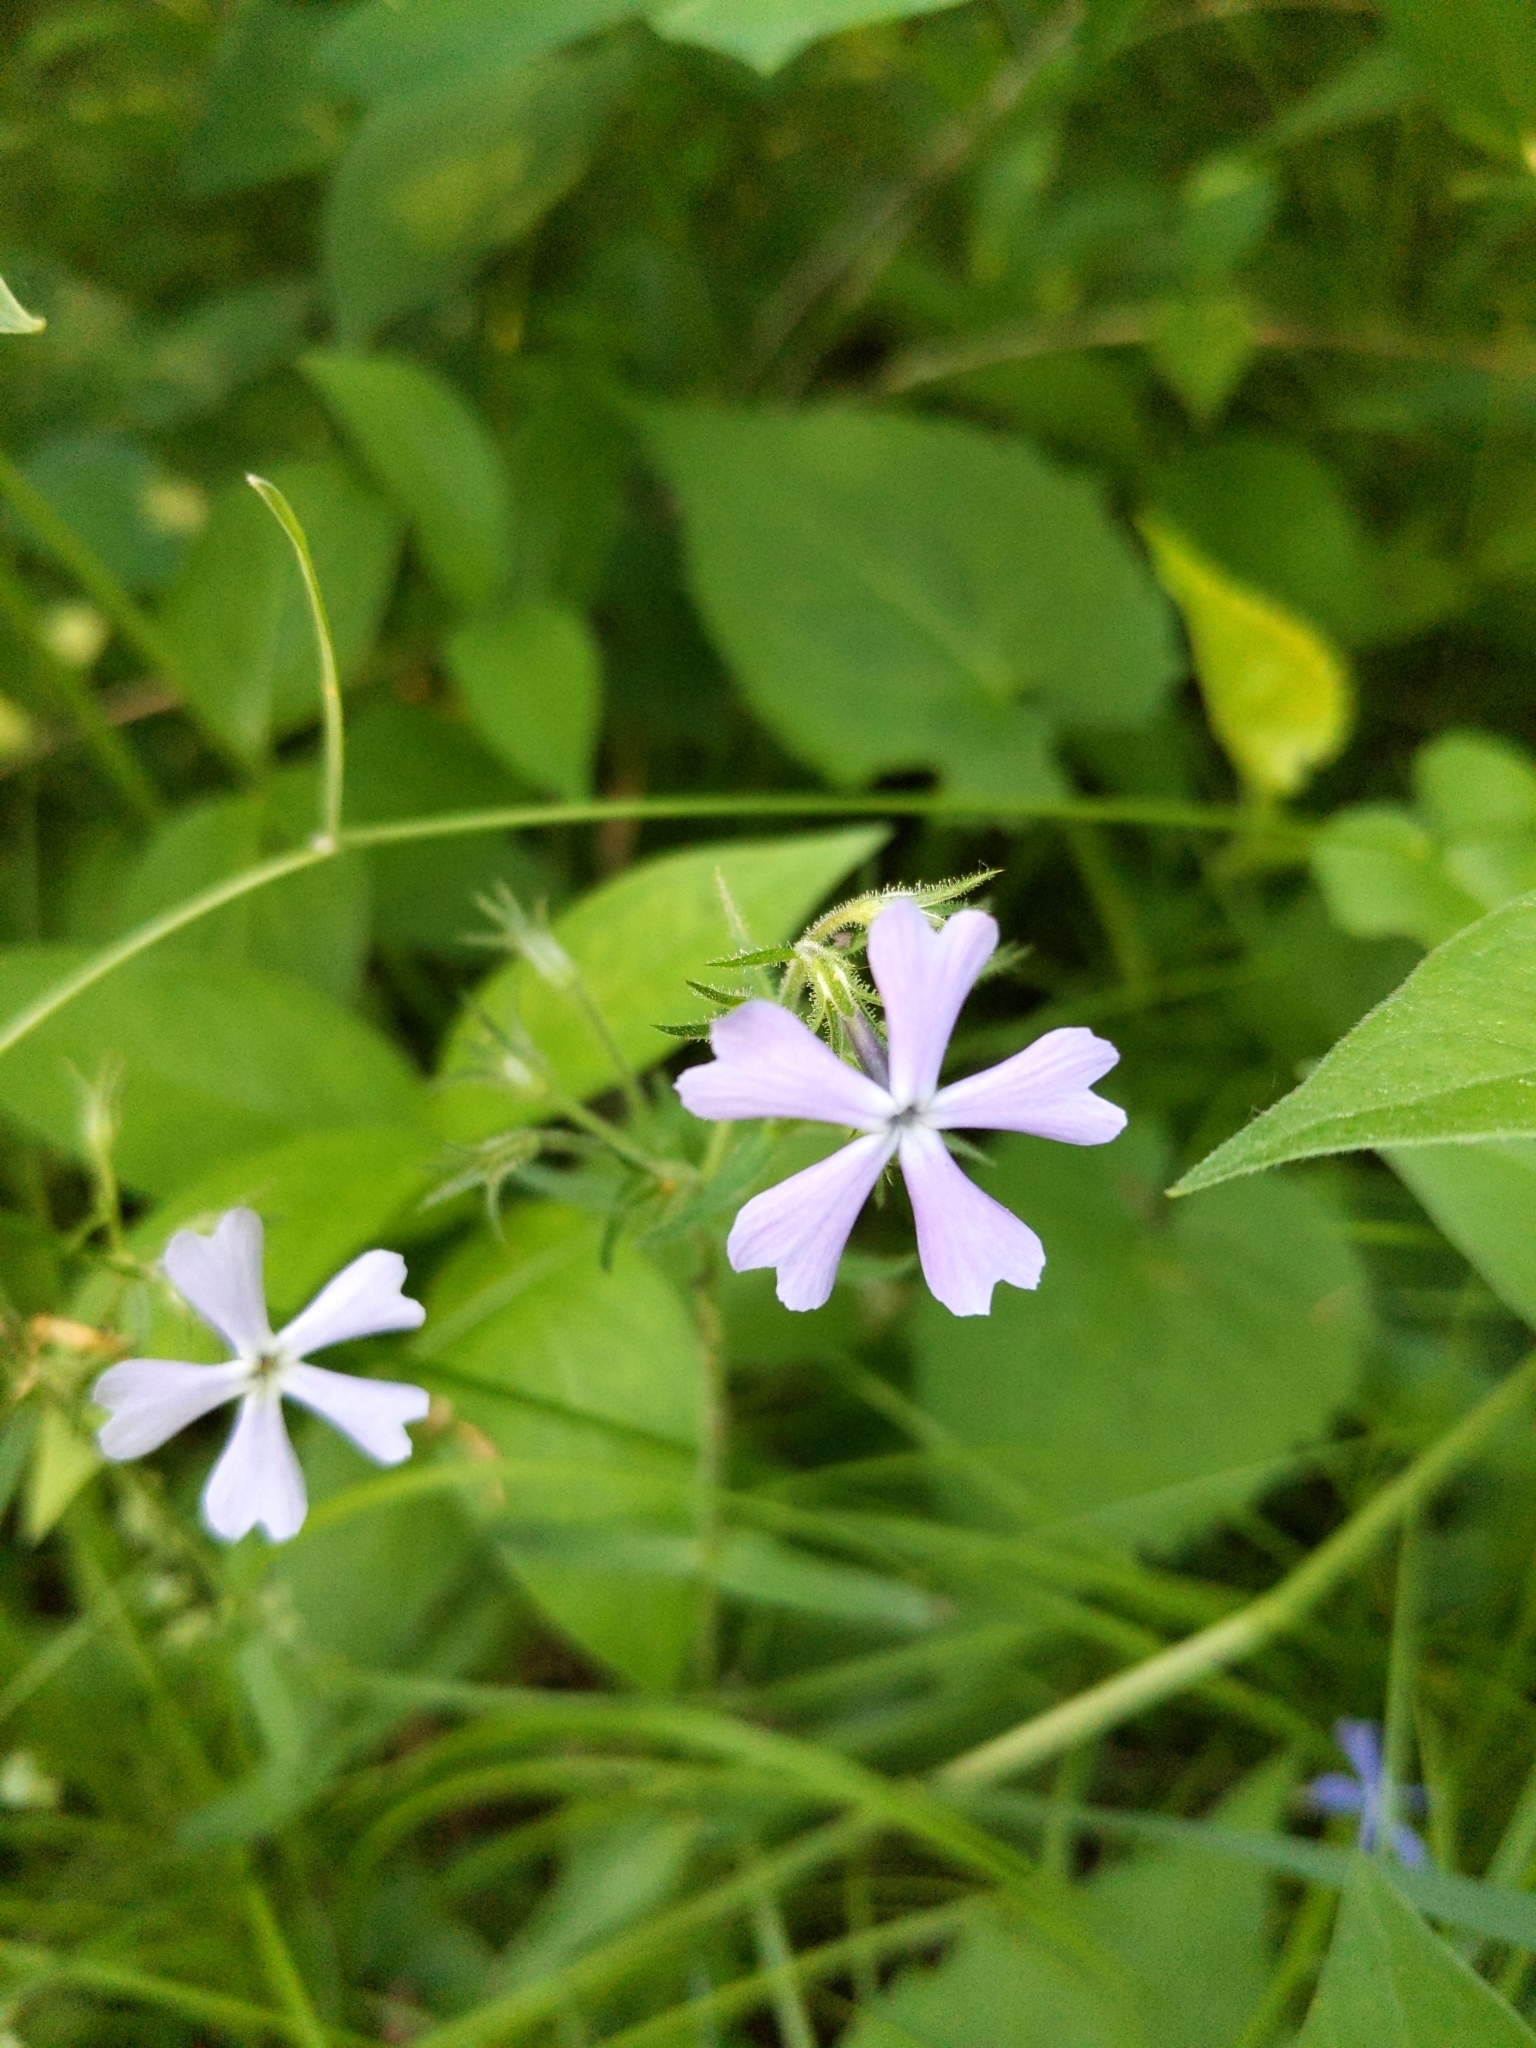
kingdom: Plantae
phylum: Tracheophyta
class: Magnoliopsida
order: Ericales
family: Polemoniaceae
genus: Phlox
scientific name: Phlox divaricata
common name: Blue phlox
